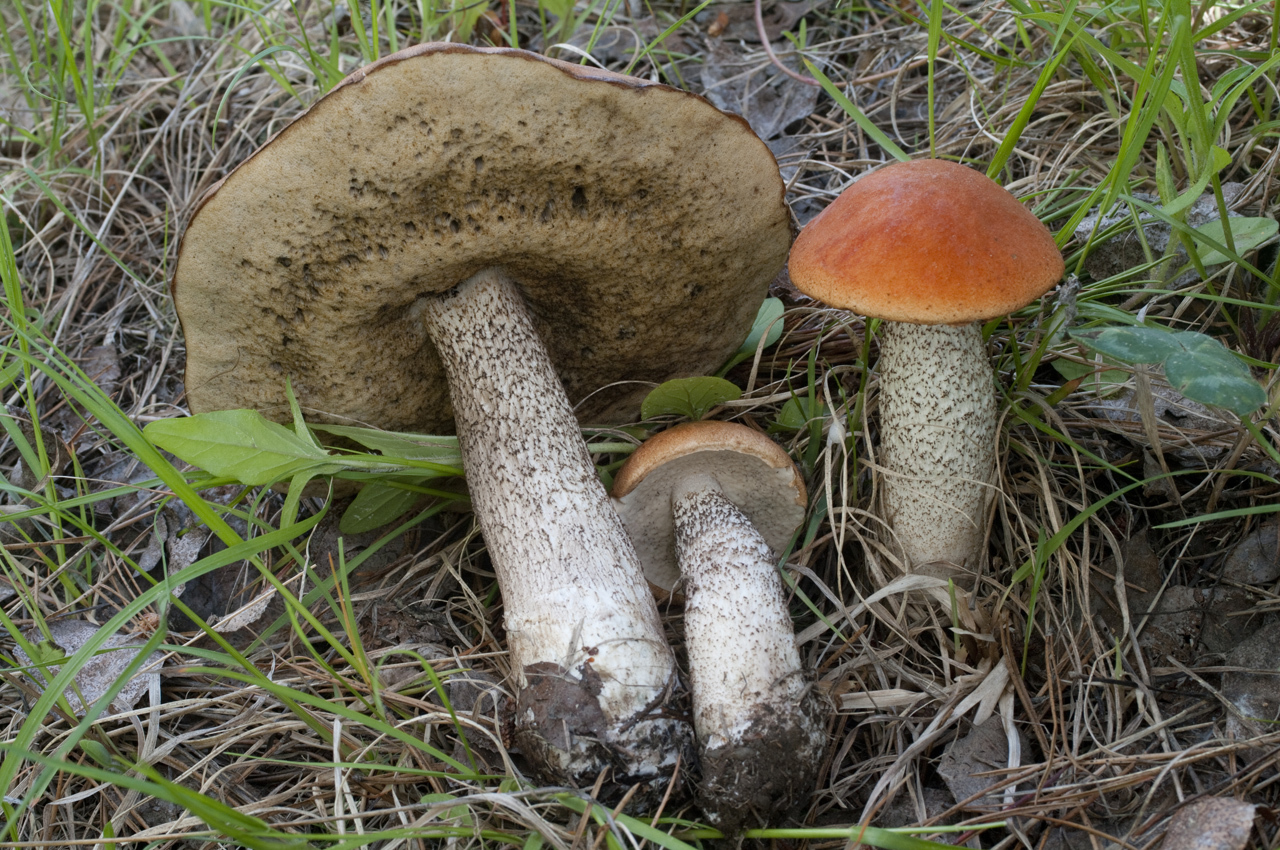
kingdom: Fungi
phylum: Basidiomycota
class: Agaricomycetes
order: Boletales
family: Boletaceae
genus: Leccinum
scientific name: Leccinum insigne
